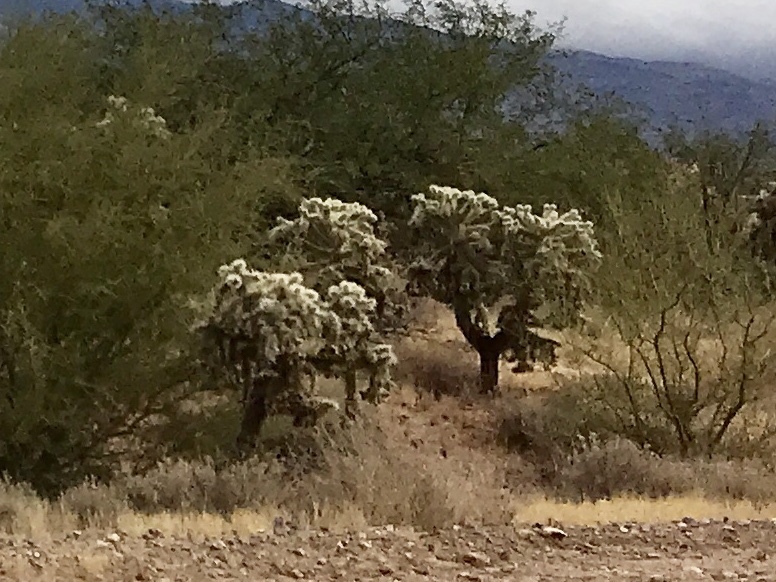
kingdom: Plantae
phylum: Tracheophyta
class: Magnoliopsida
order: Caryophyllales
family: Cactaceae
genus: Cylindropuntia
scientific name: Cylindropuntia fulgida
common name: Jumping cholla
